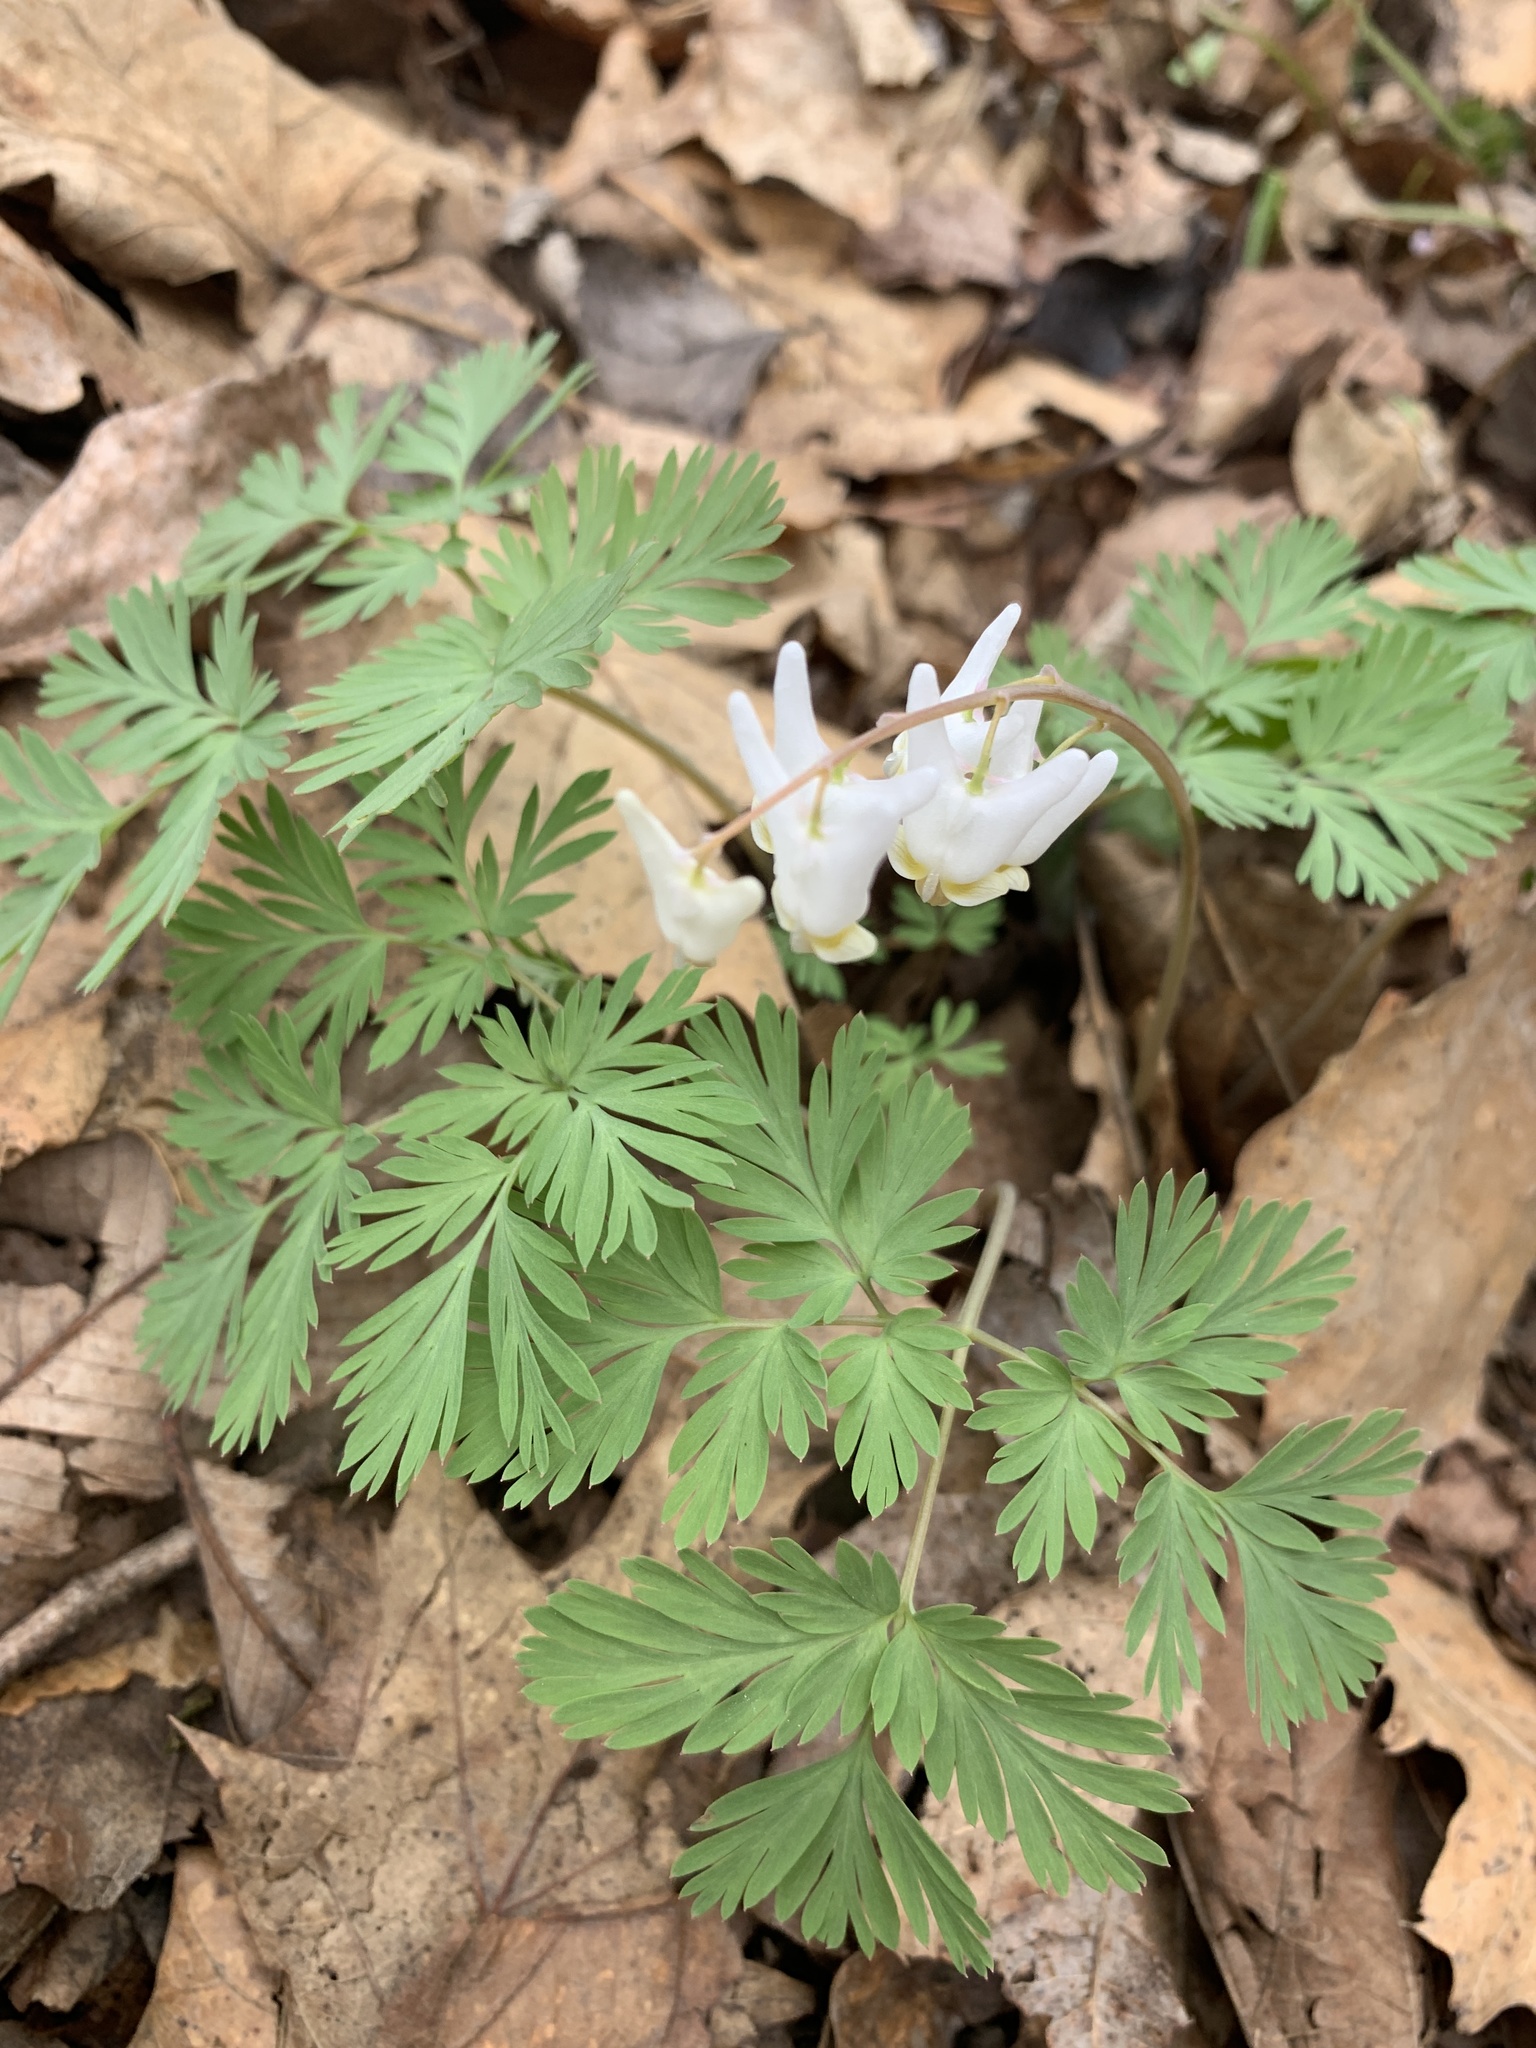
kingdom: Plantae
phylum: Tracheophyta
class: Magnoliopsida
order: Ranunculales
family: Papaveraceae
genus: Dicentra
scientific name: Dicentra cucullaria
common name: Dutchman's breeches
